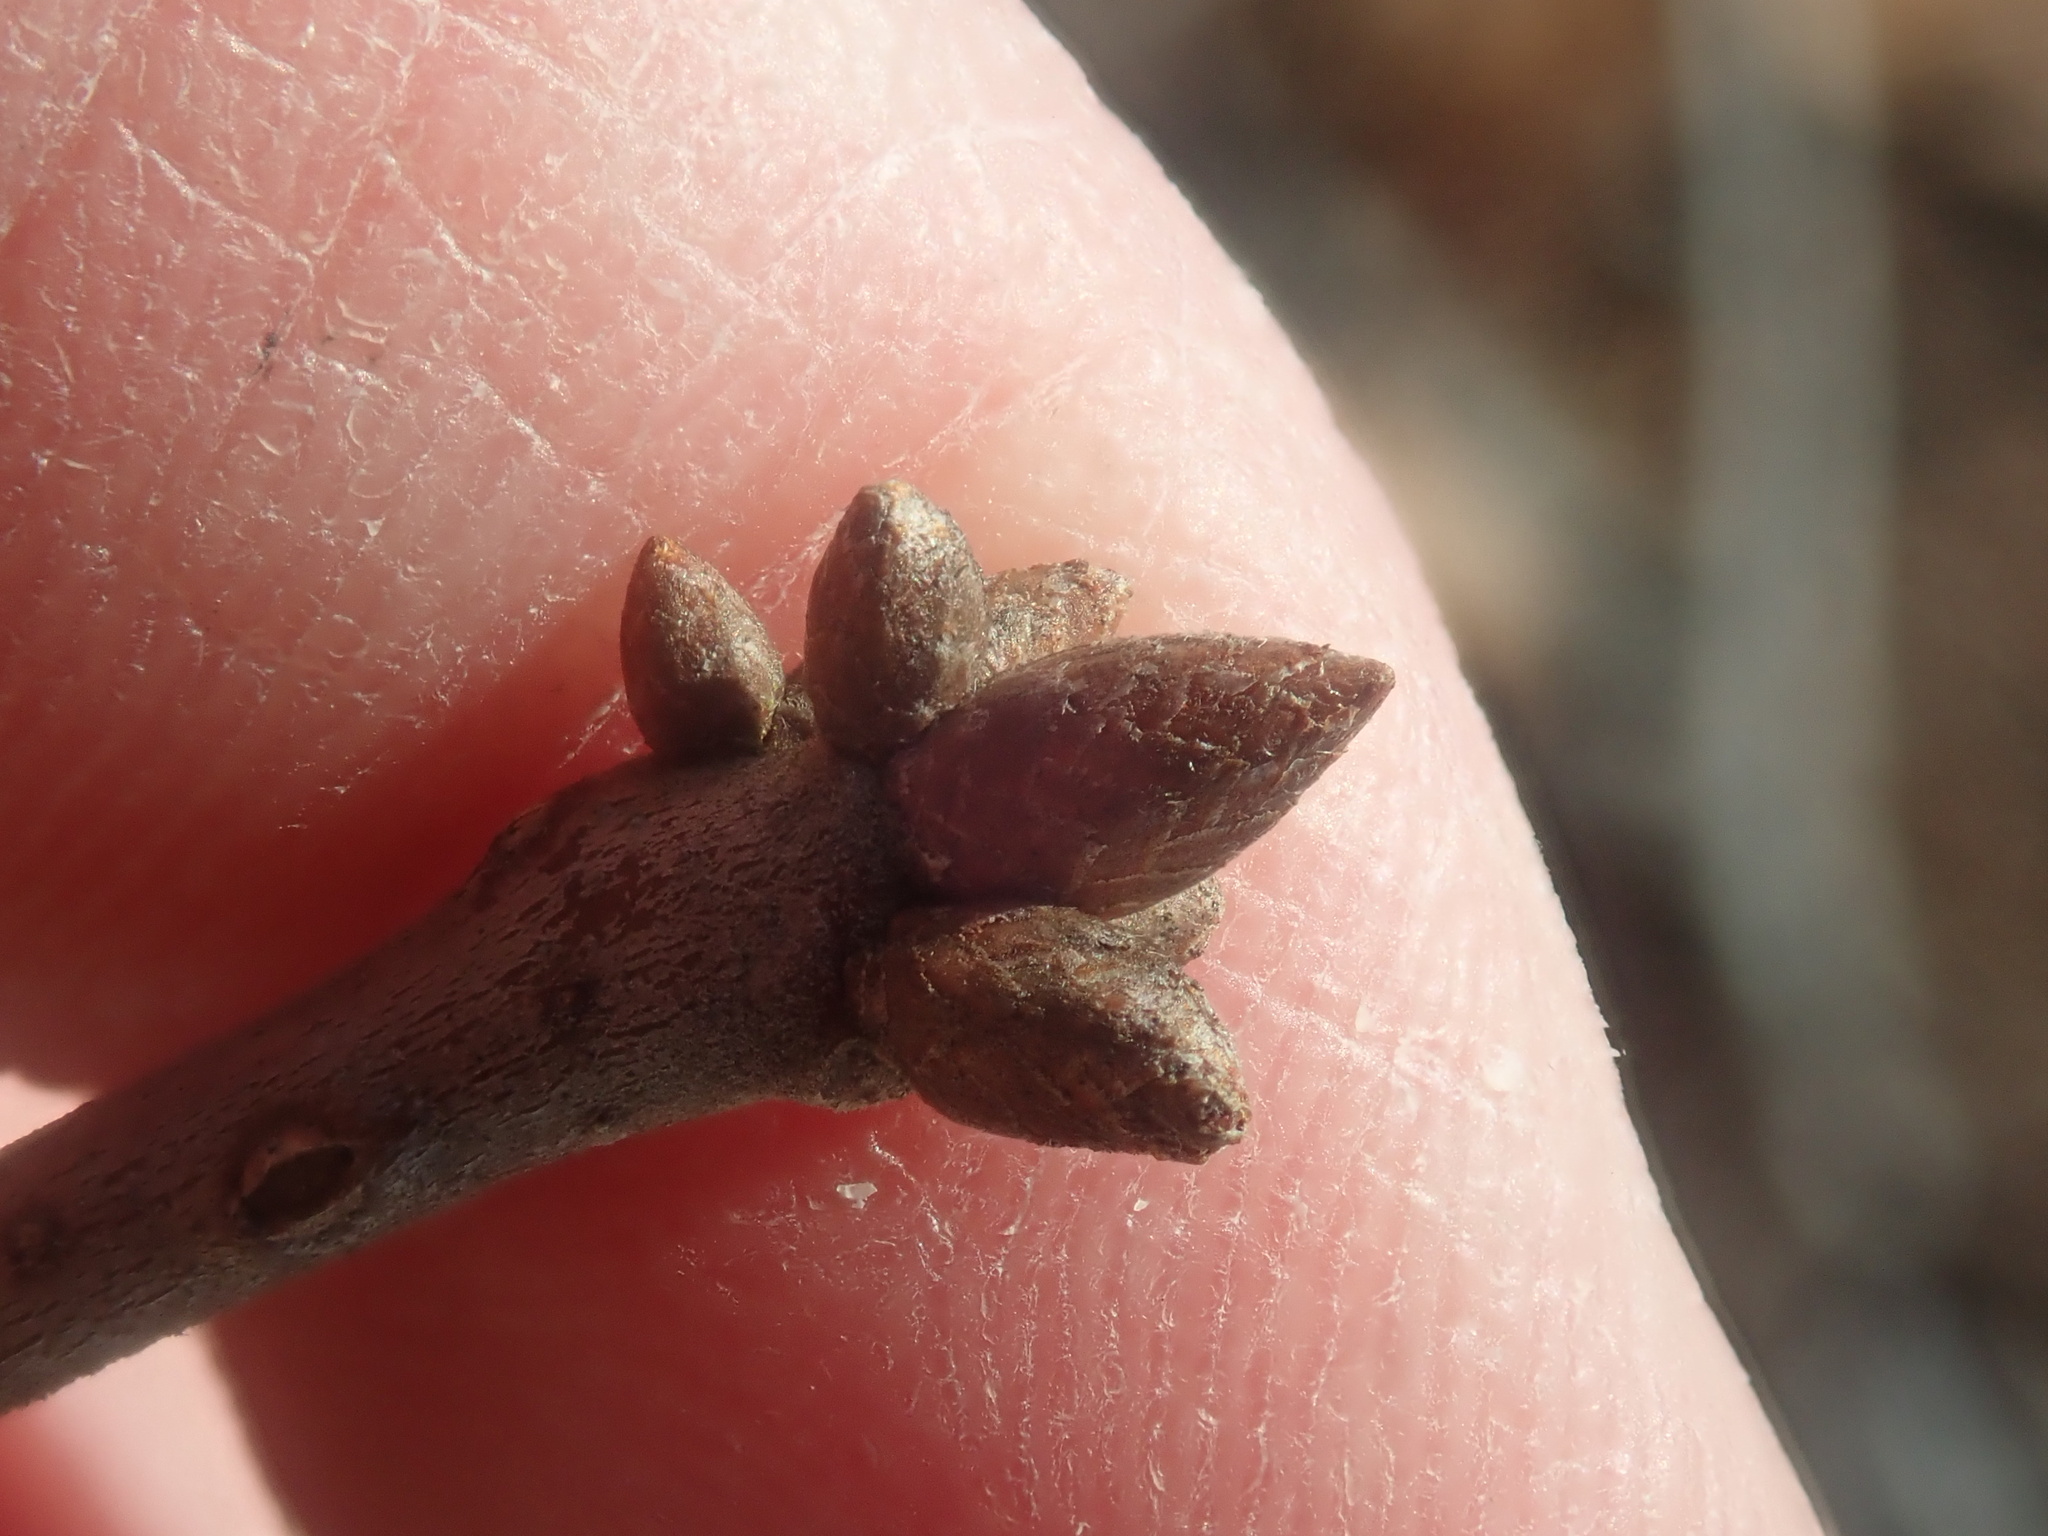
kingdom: Plantae
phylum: Tracheophyta
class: Magnoliopsida
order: Fagales
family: Fagaceae
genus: Quercus
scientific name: Quercus ilicifolia
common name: Bear oak
